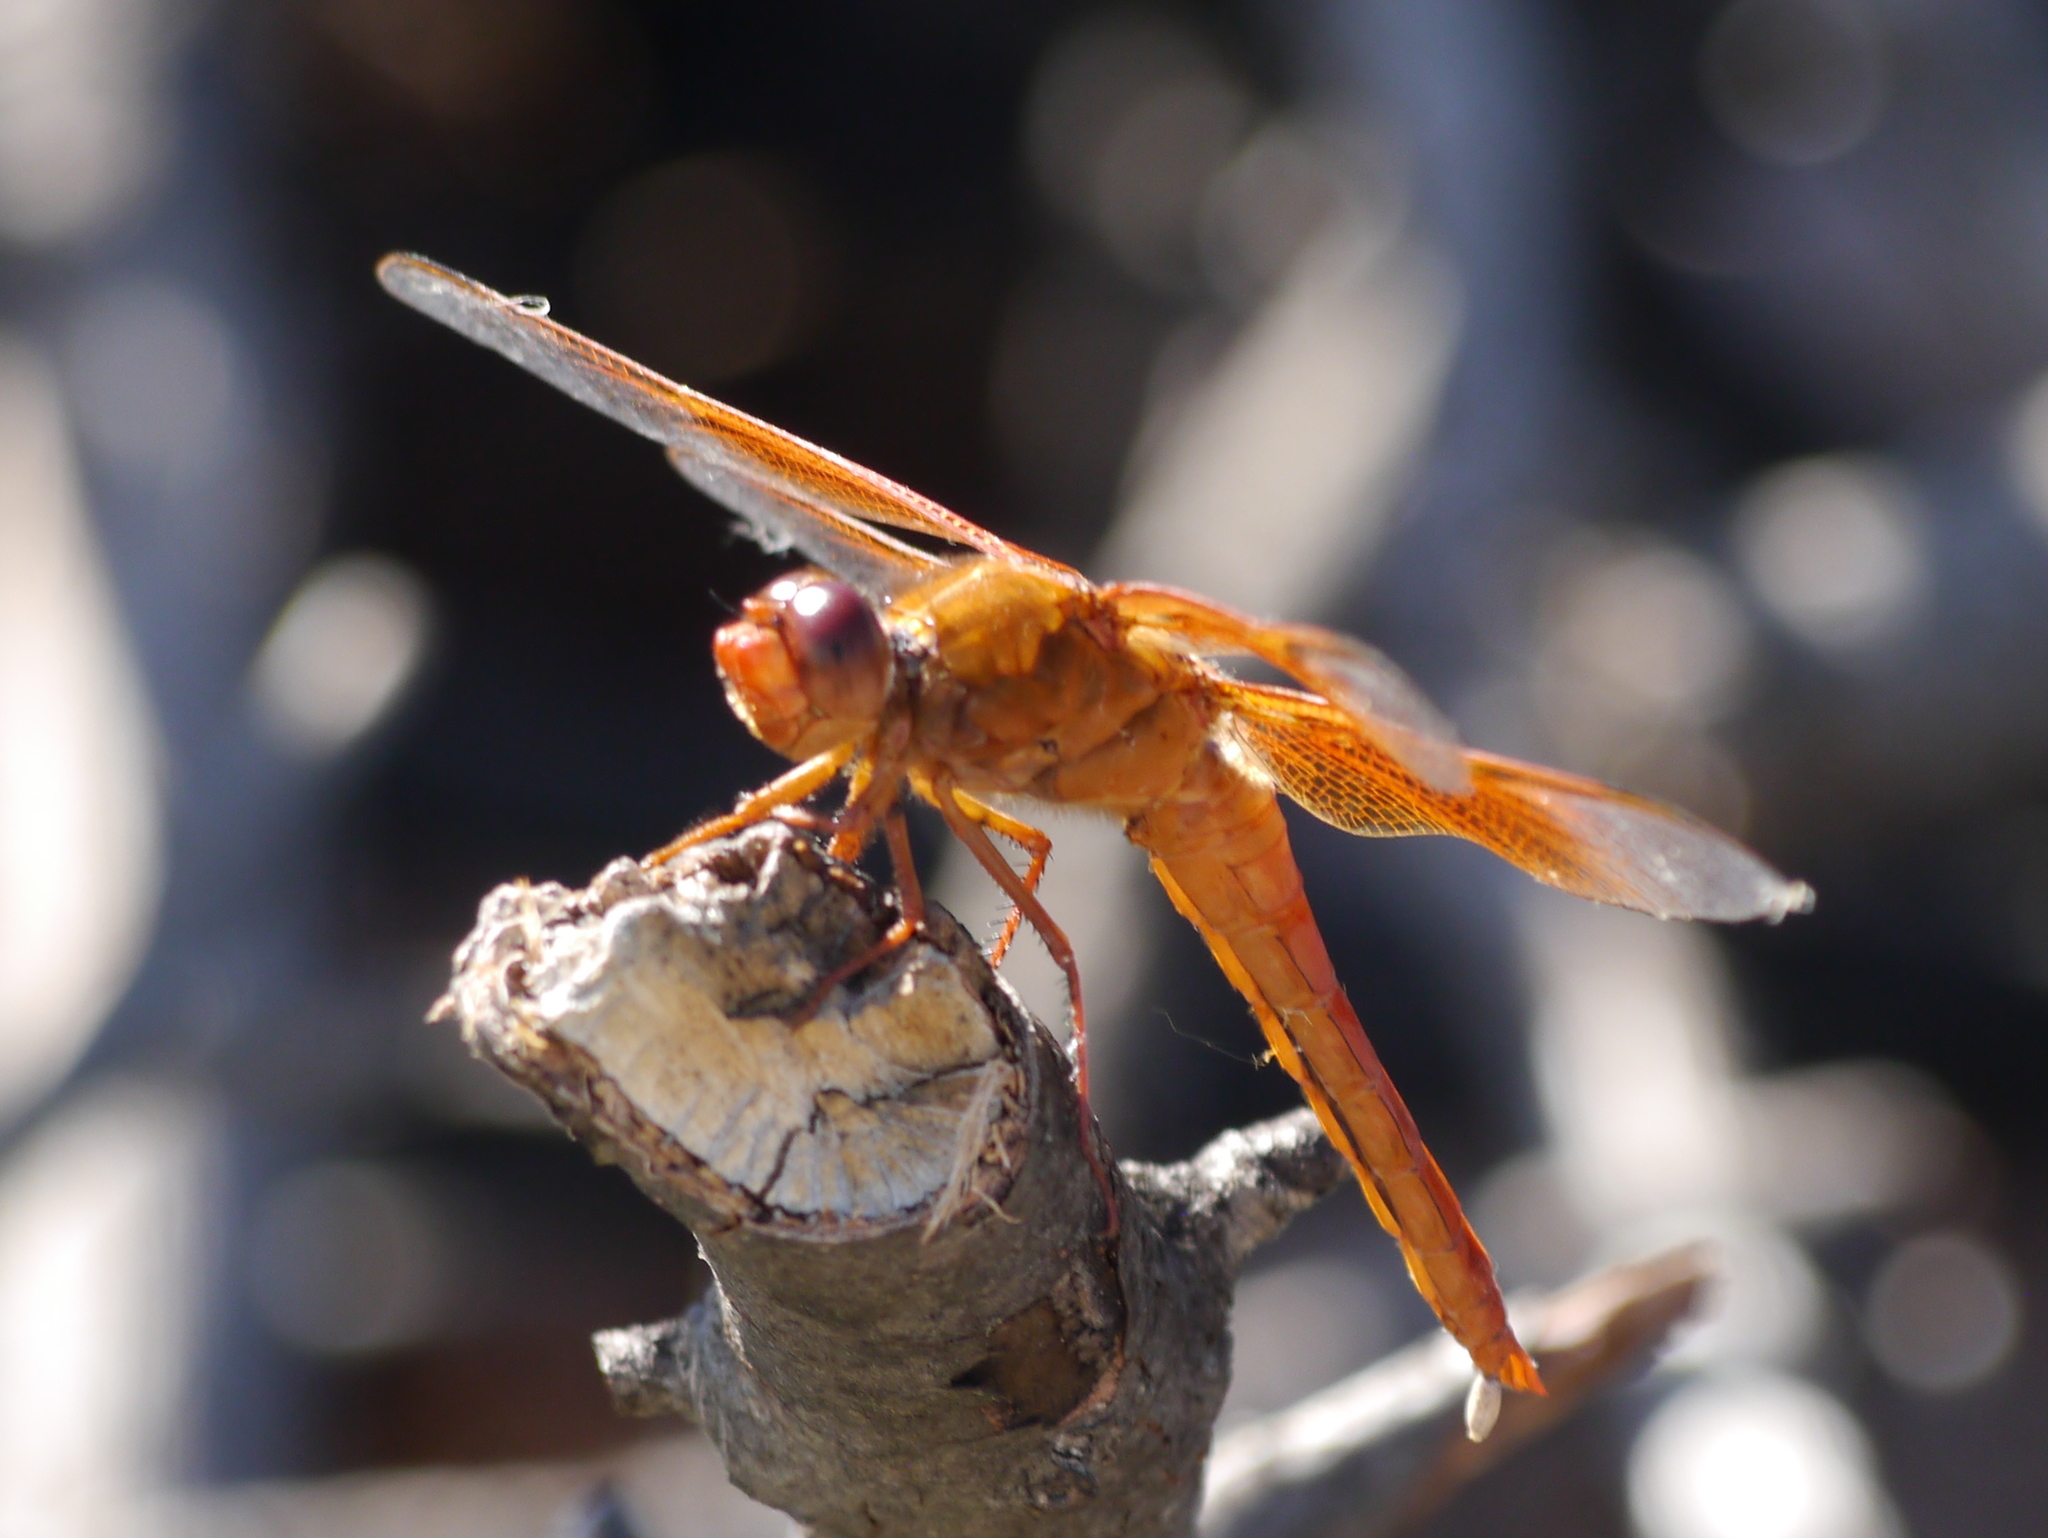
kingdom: Animalia
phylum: Arthropoda
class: Insecta
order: Odonata
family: Libellulidae
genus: Libellula
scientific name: Libellula saturata
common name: Flame skimmer
